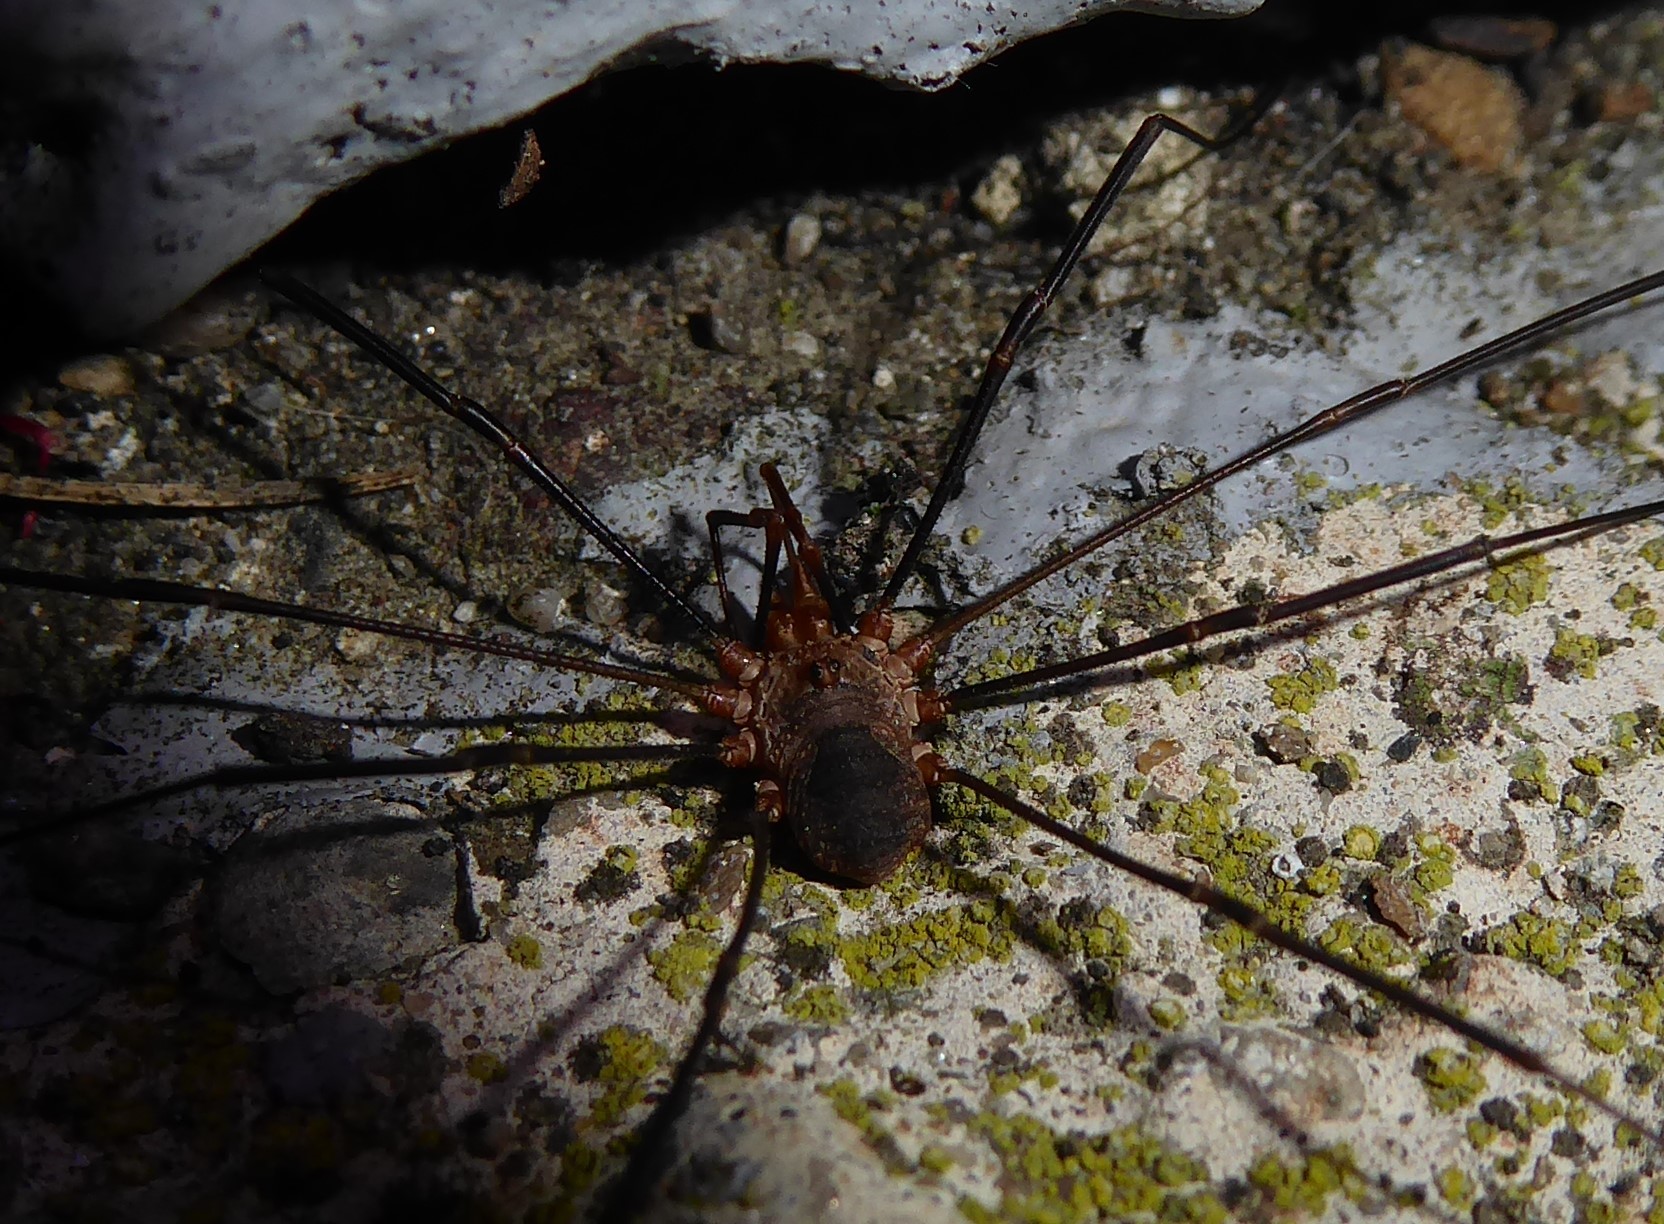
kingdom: Animalia
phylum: Arthropoda
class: Arachnida
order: Opiliones
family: Phalangiidae
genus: Phalangium
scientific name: Phalangium opilio
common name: Daddy longleg
